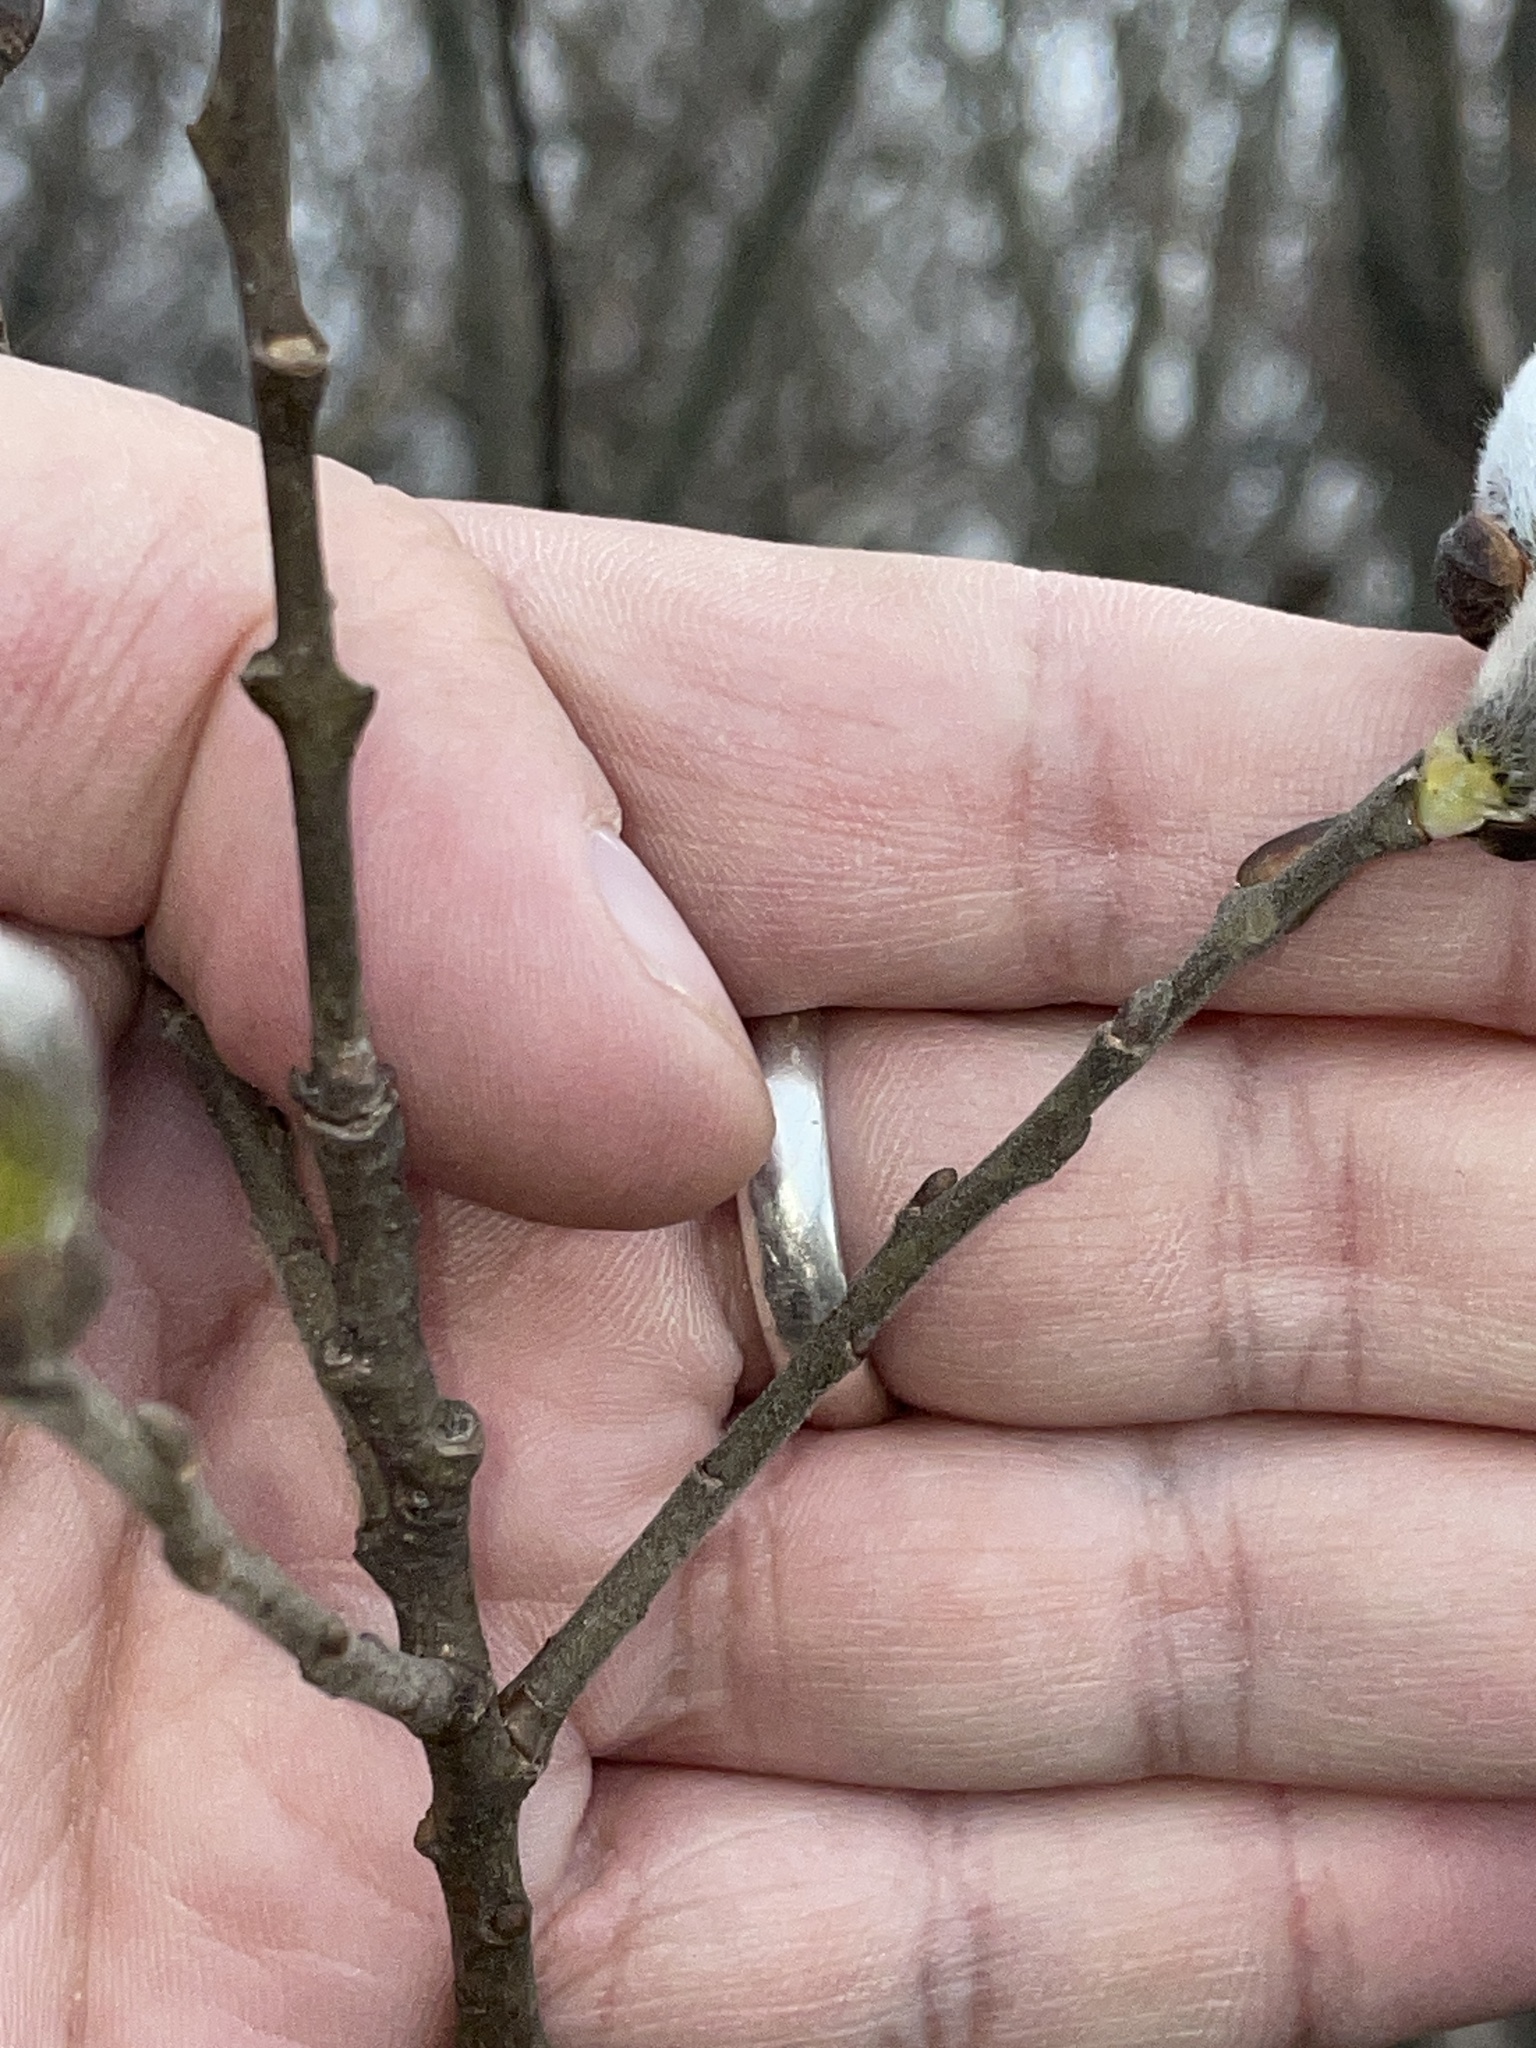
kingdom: Plantae
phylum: Tracheophyta
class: Magnoliopsida
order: Malpighiales
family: Salicaceae
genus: Salix
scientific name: Salix discolor
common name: Glaucous willow
